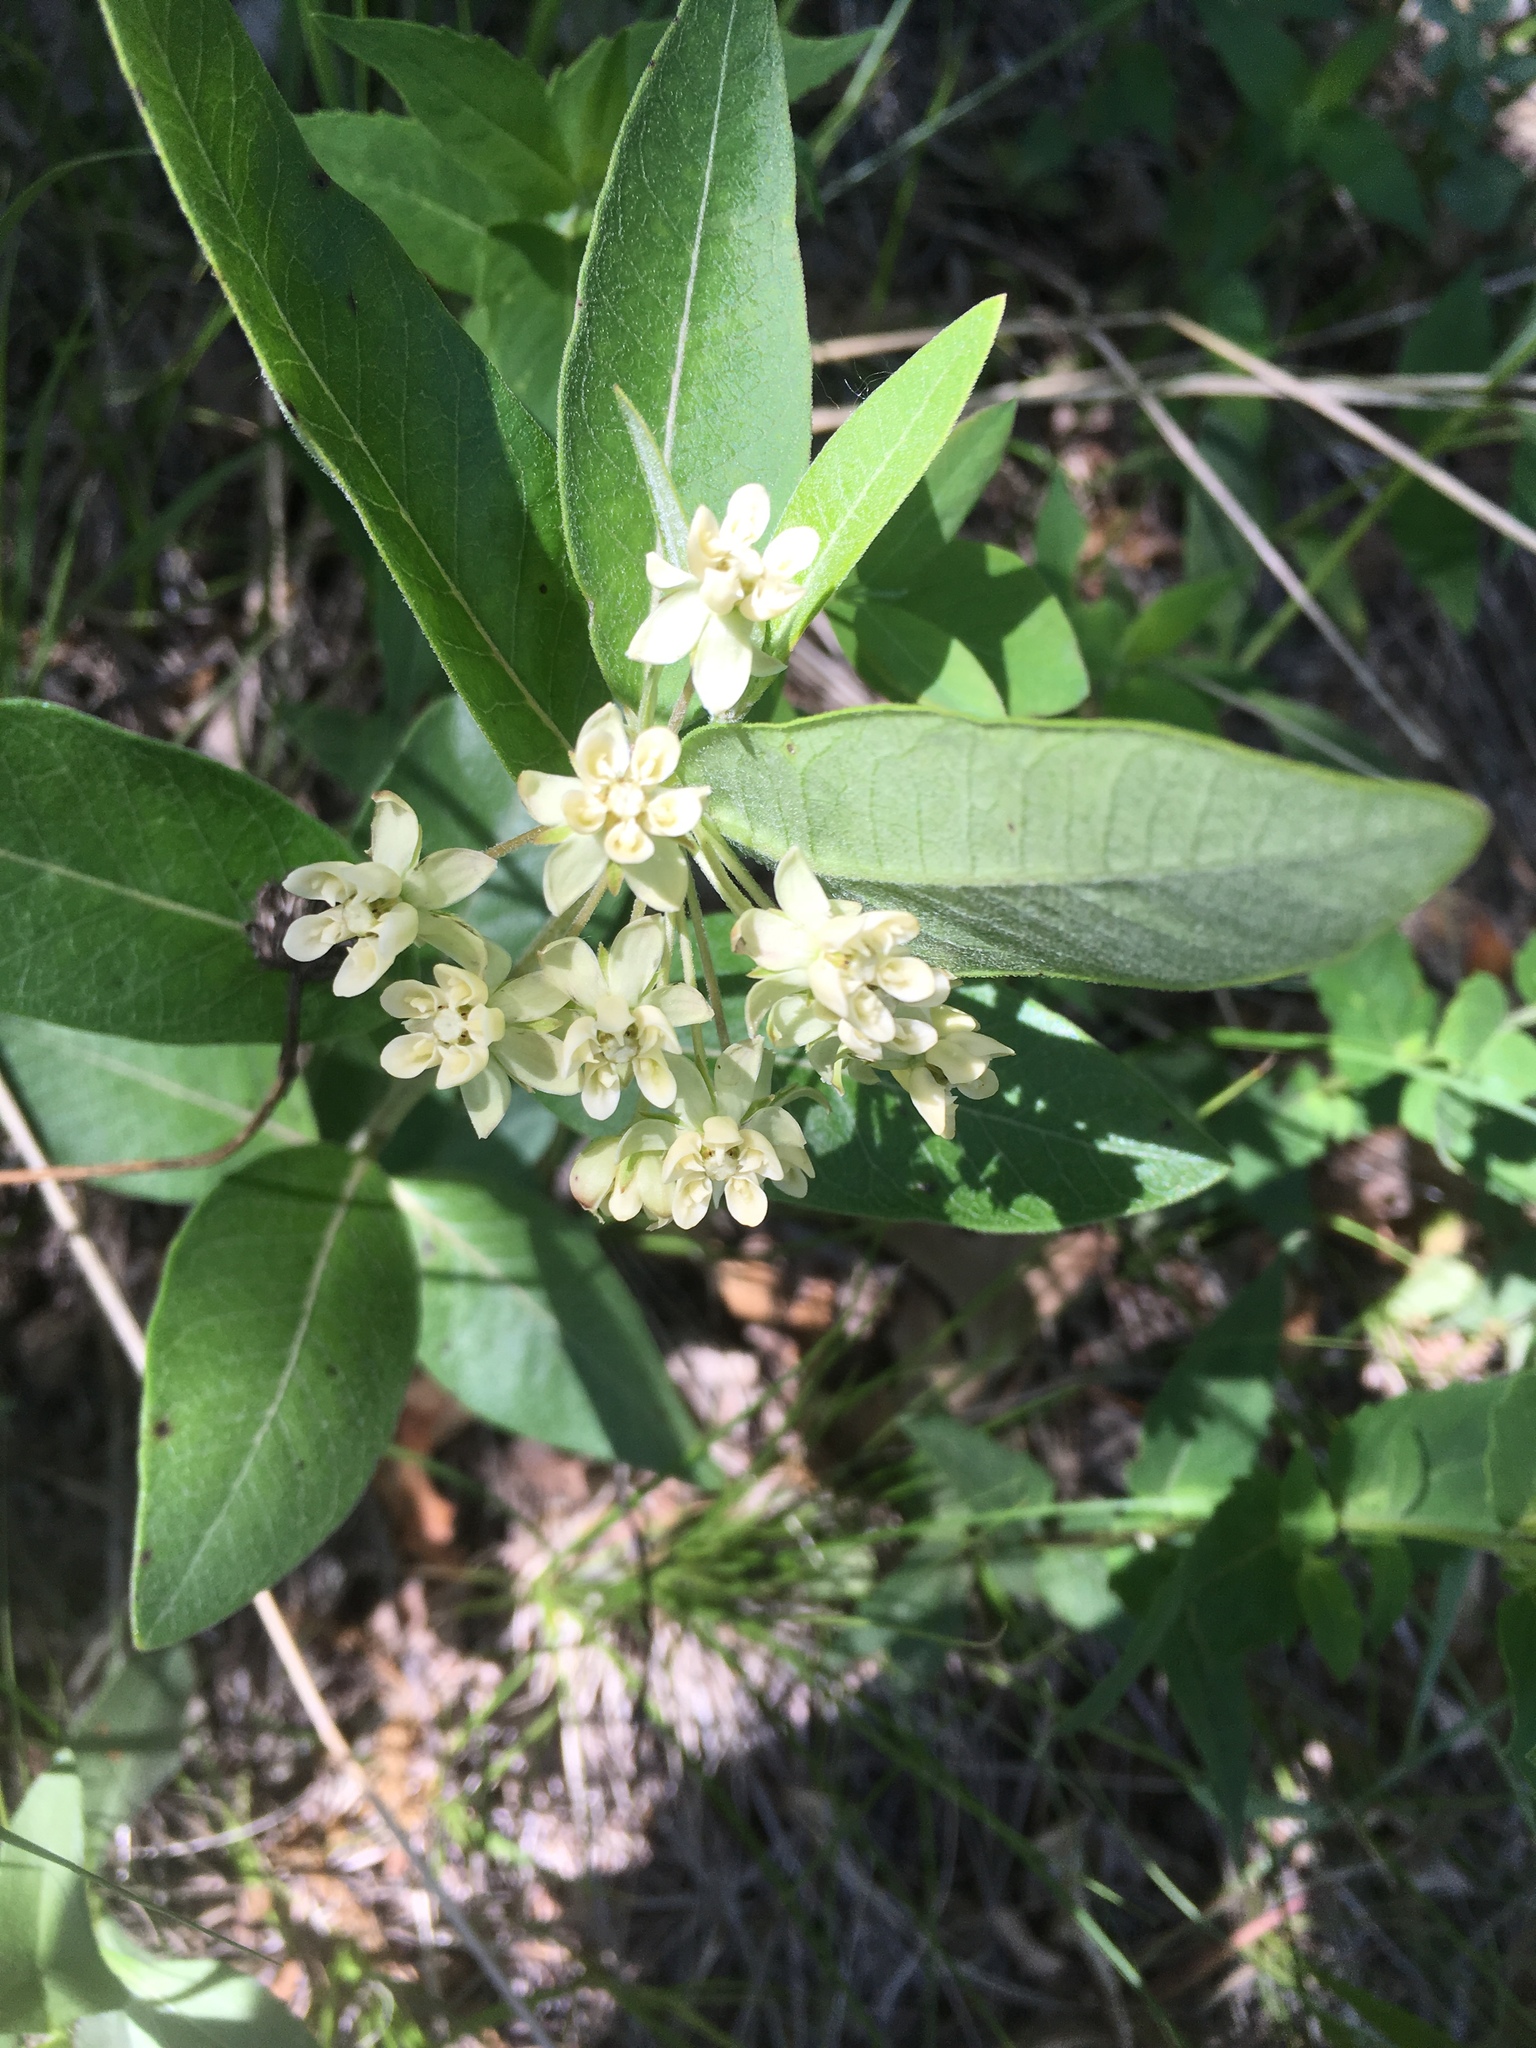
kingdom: Plantae
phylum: Tracheophyta
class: Magnoliopsida
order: Gentianales
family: Apocynaceae
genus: Asclepias
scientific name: Asclepias ovalifolia
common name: Dwarf milkweed
